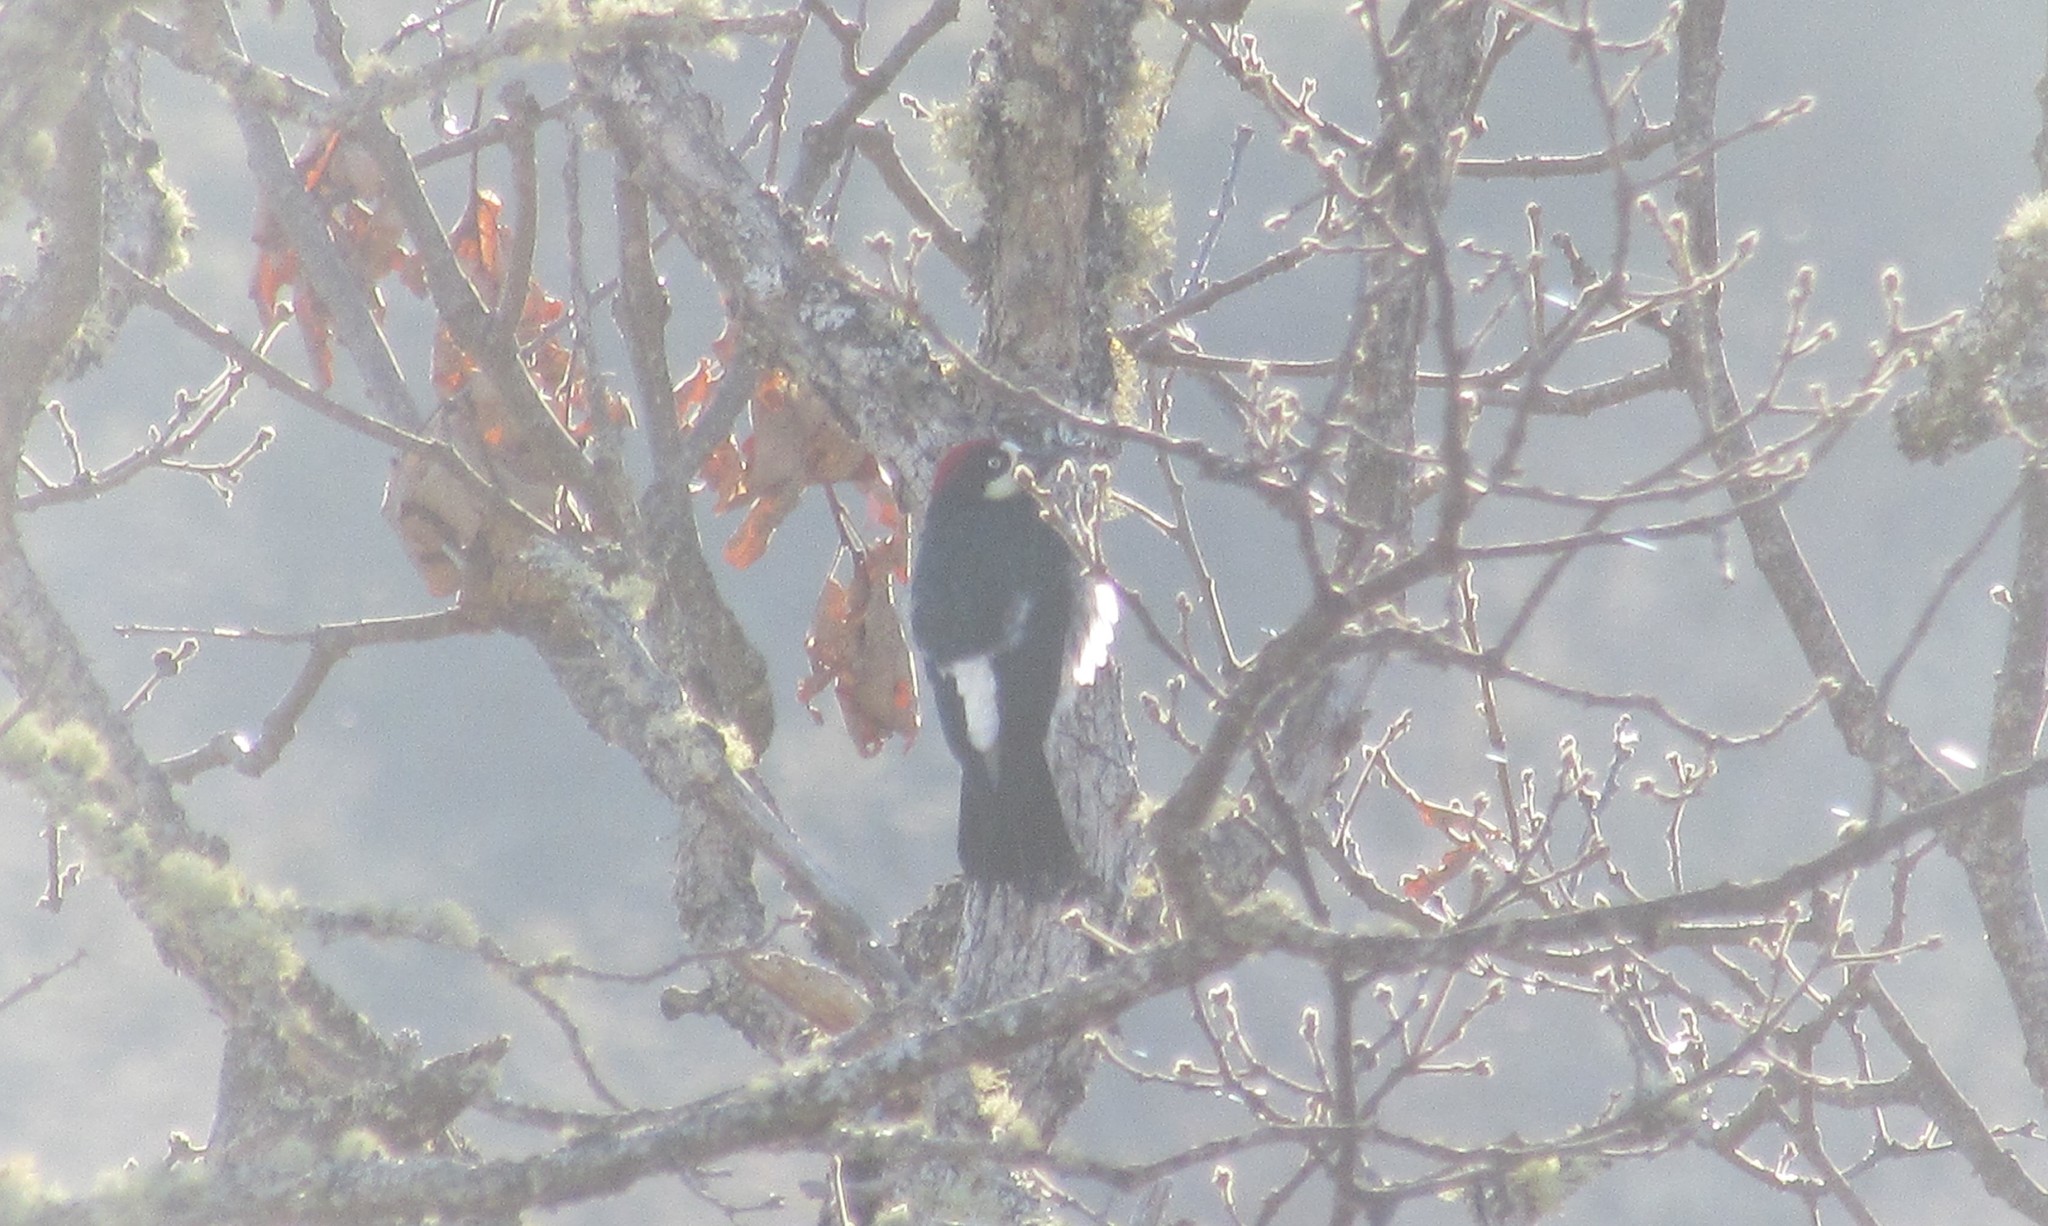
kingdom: Animalia
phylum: Chordata
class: Aves
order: Piciformes
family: Picidae
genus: Melanerpes
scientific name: Melanerpes formicivorus
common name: Acorn woodpecker
